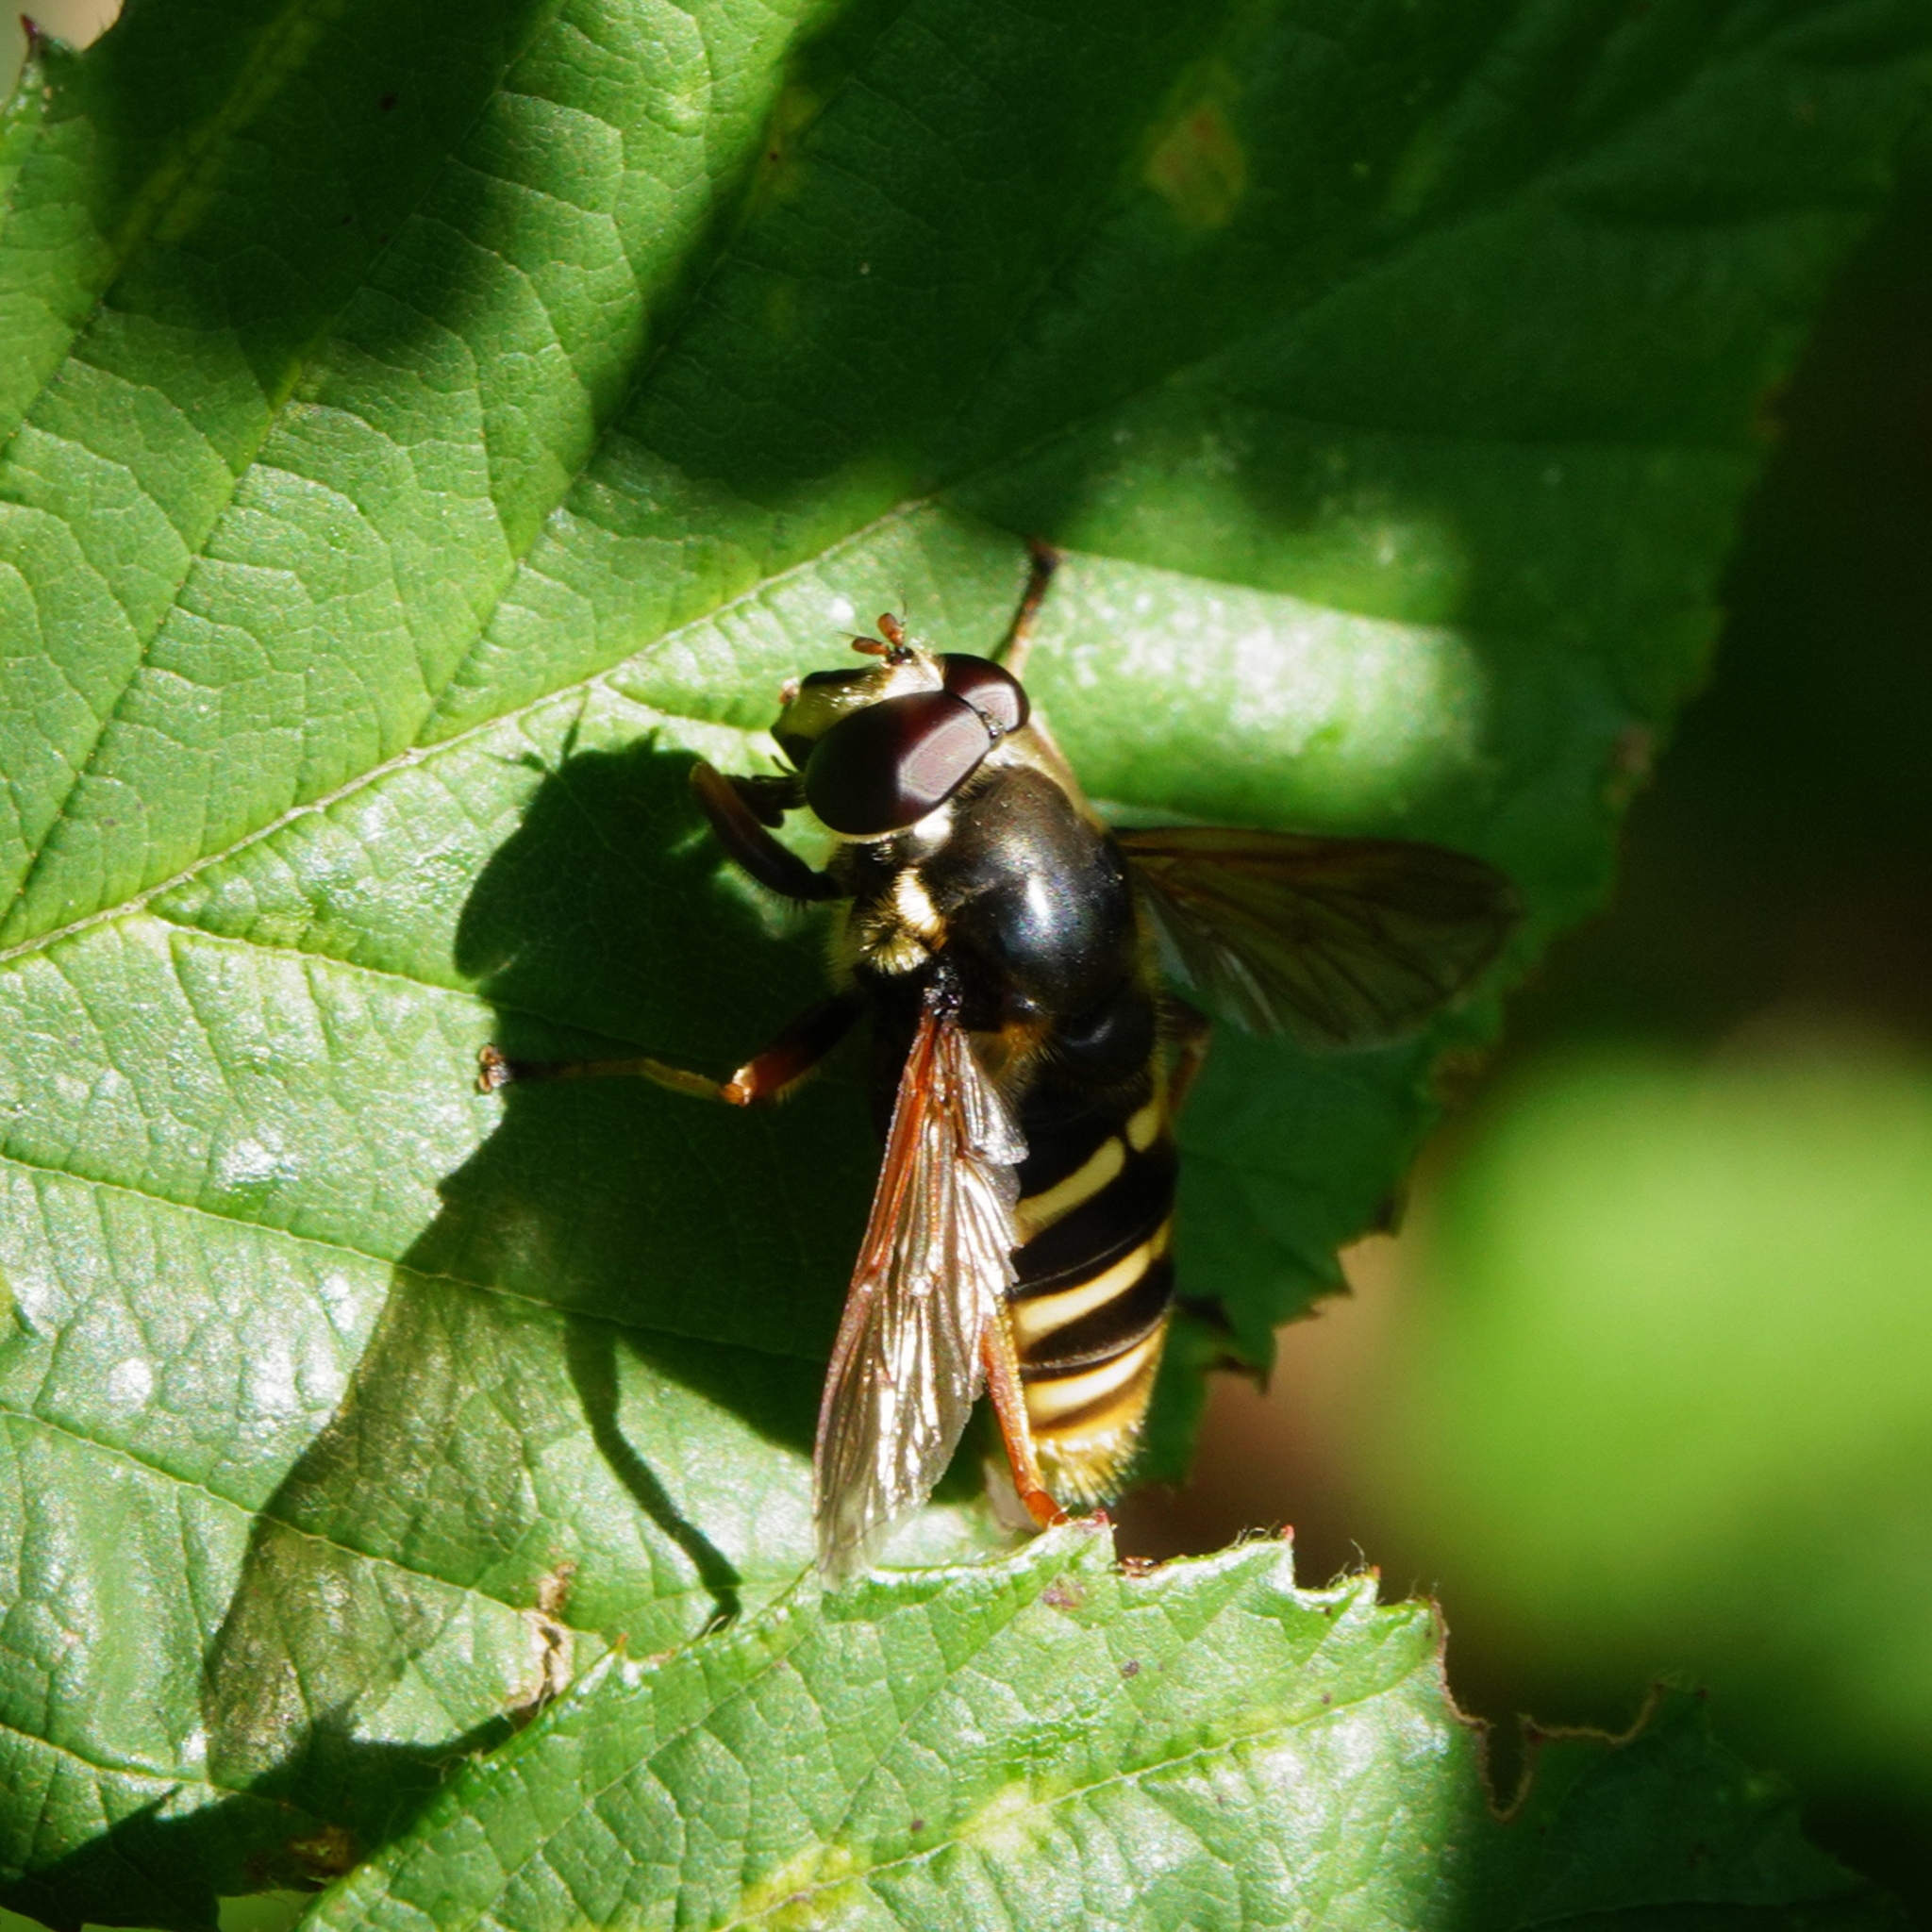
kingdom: Animalia
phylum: Arthropoda
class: Insecta
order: Diptera
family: Syrphidae
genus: Sericomyia
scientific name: Sericomyia silentis
